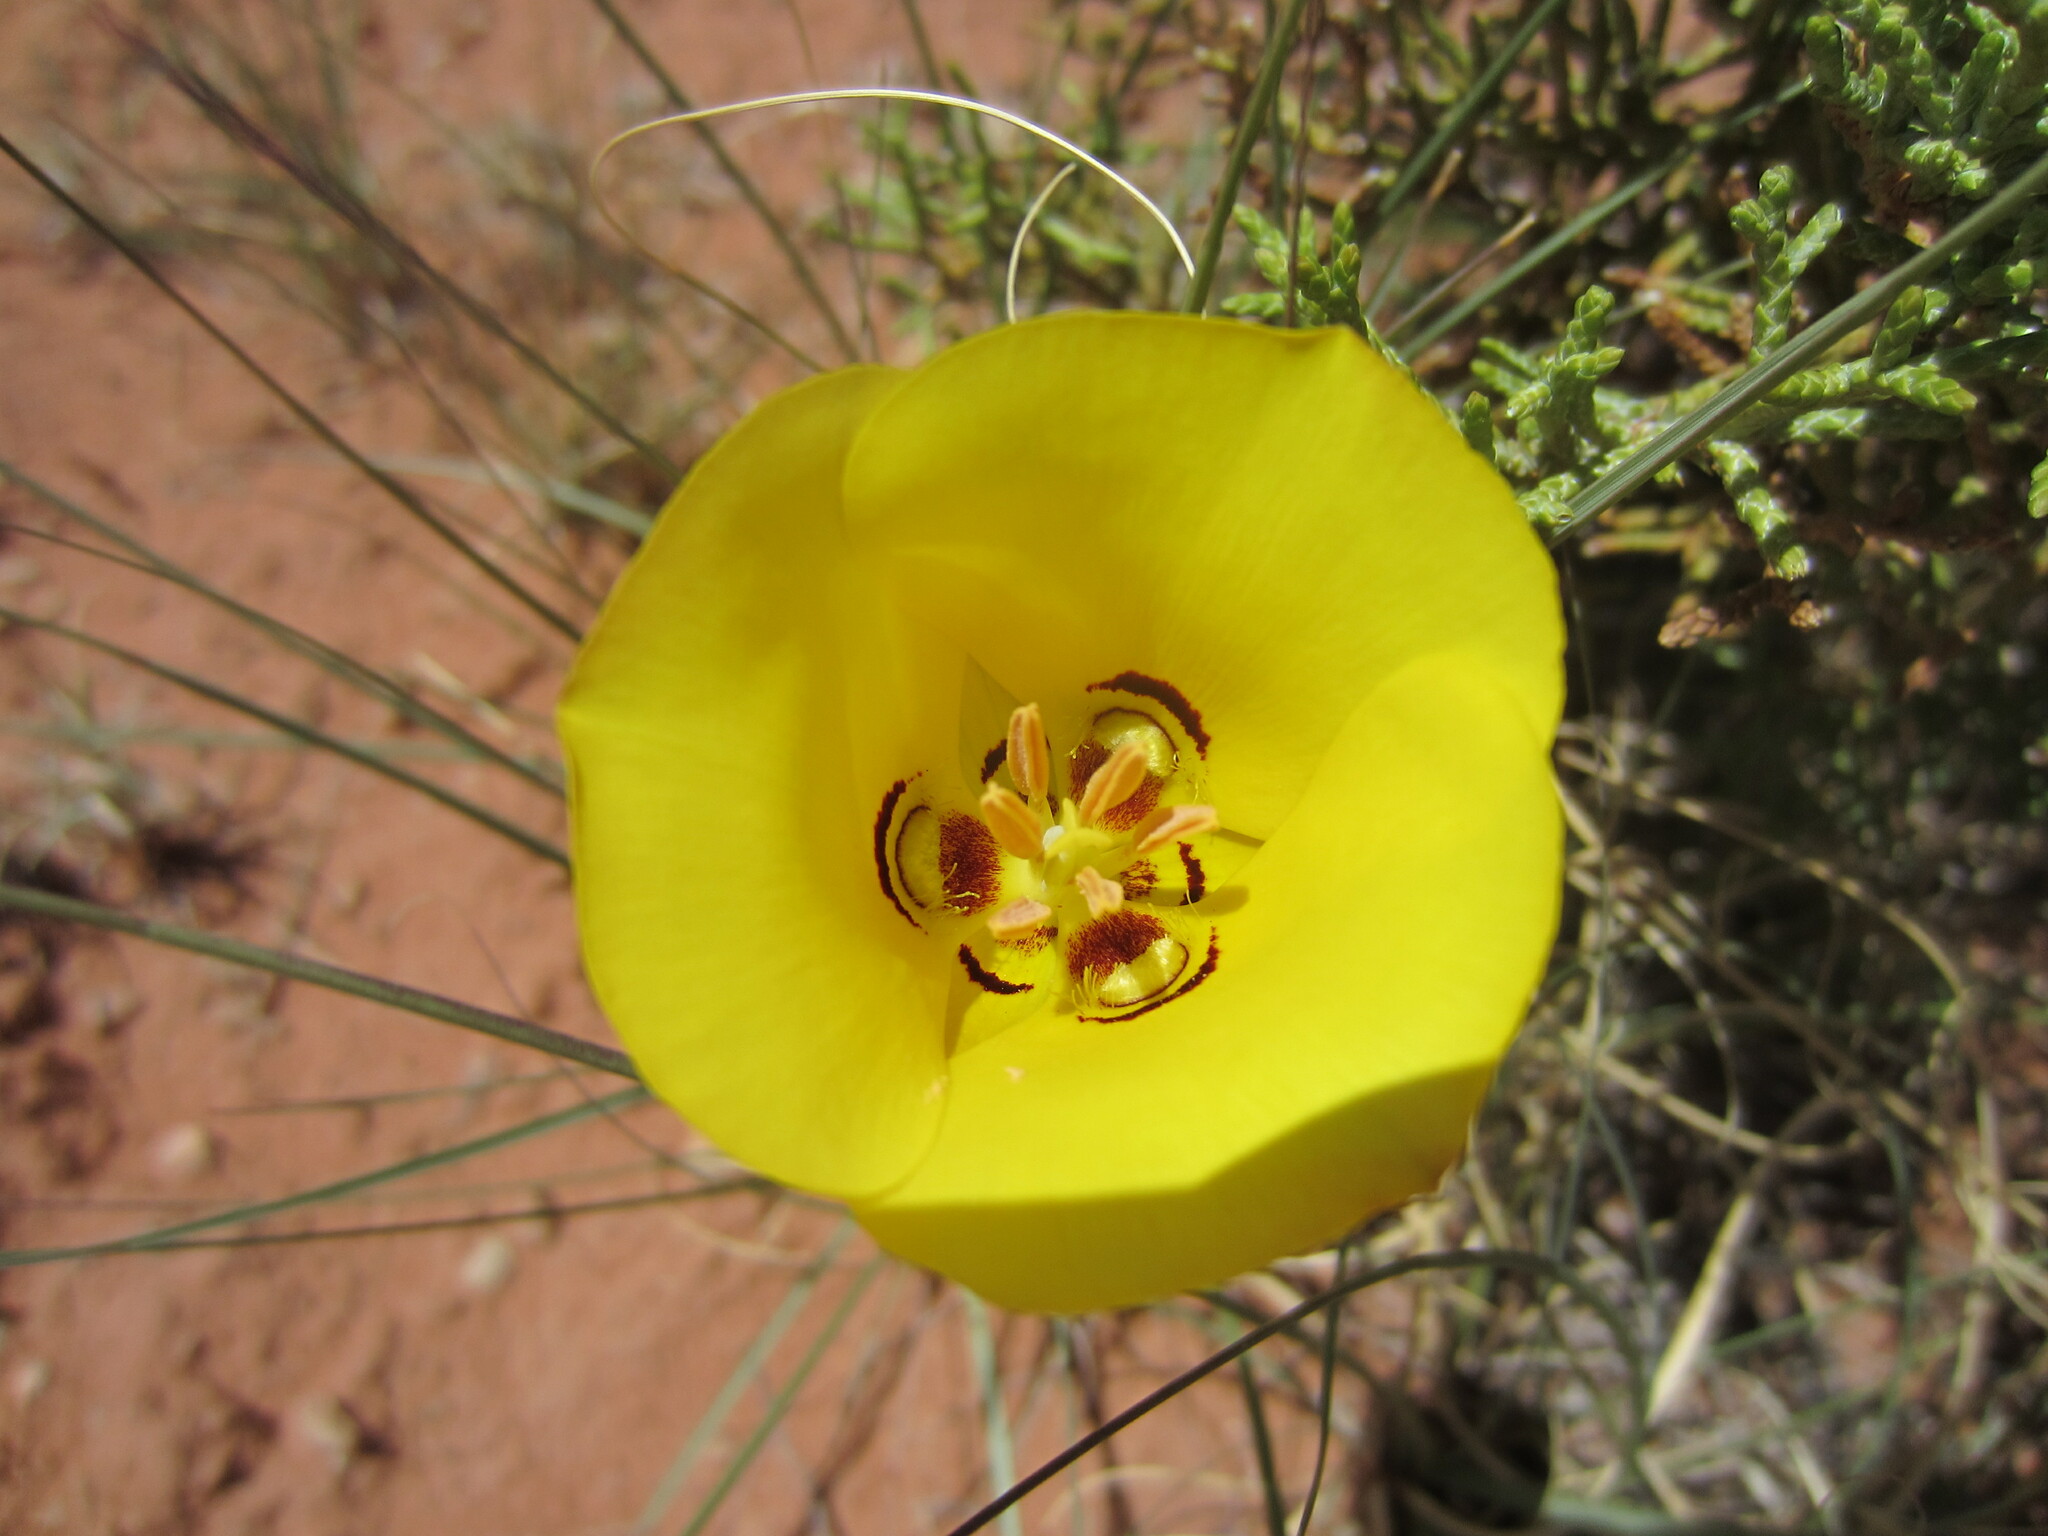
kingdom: Plantae
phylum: Tracheophyta
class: Liliopsida
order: Liliales
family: Liliaceae
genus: Calochortus
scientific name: Calochortus aureus
